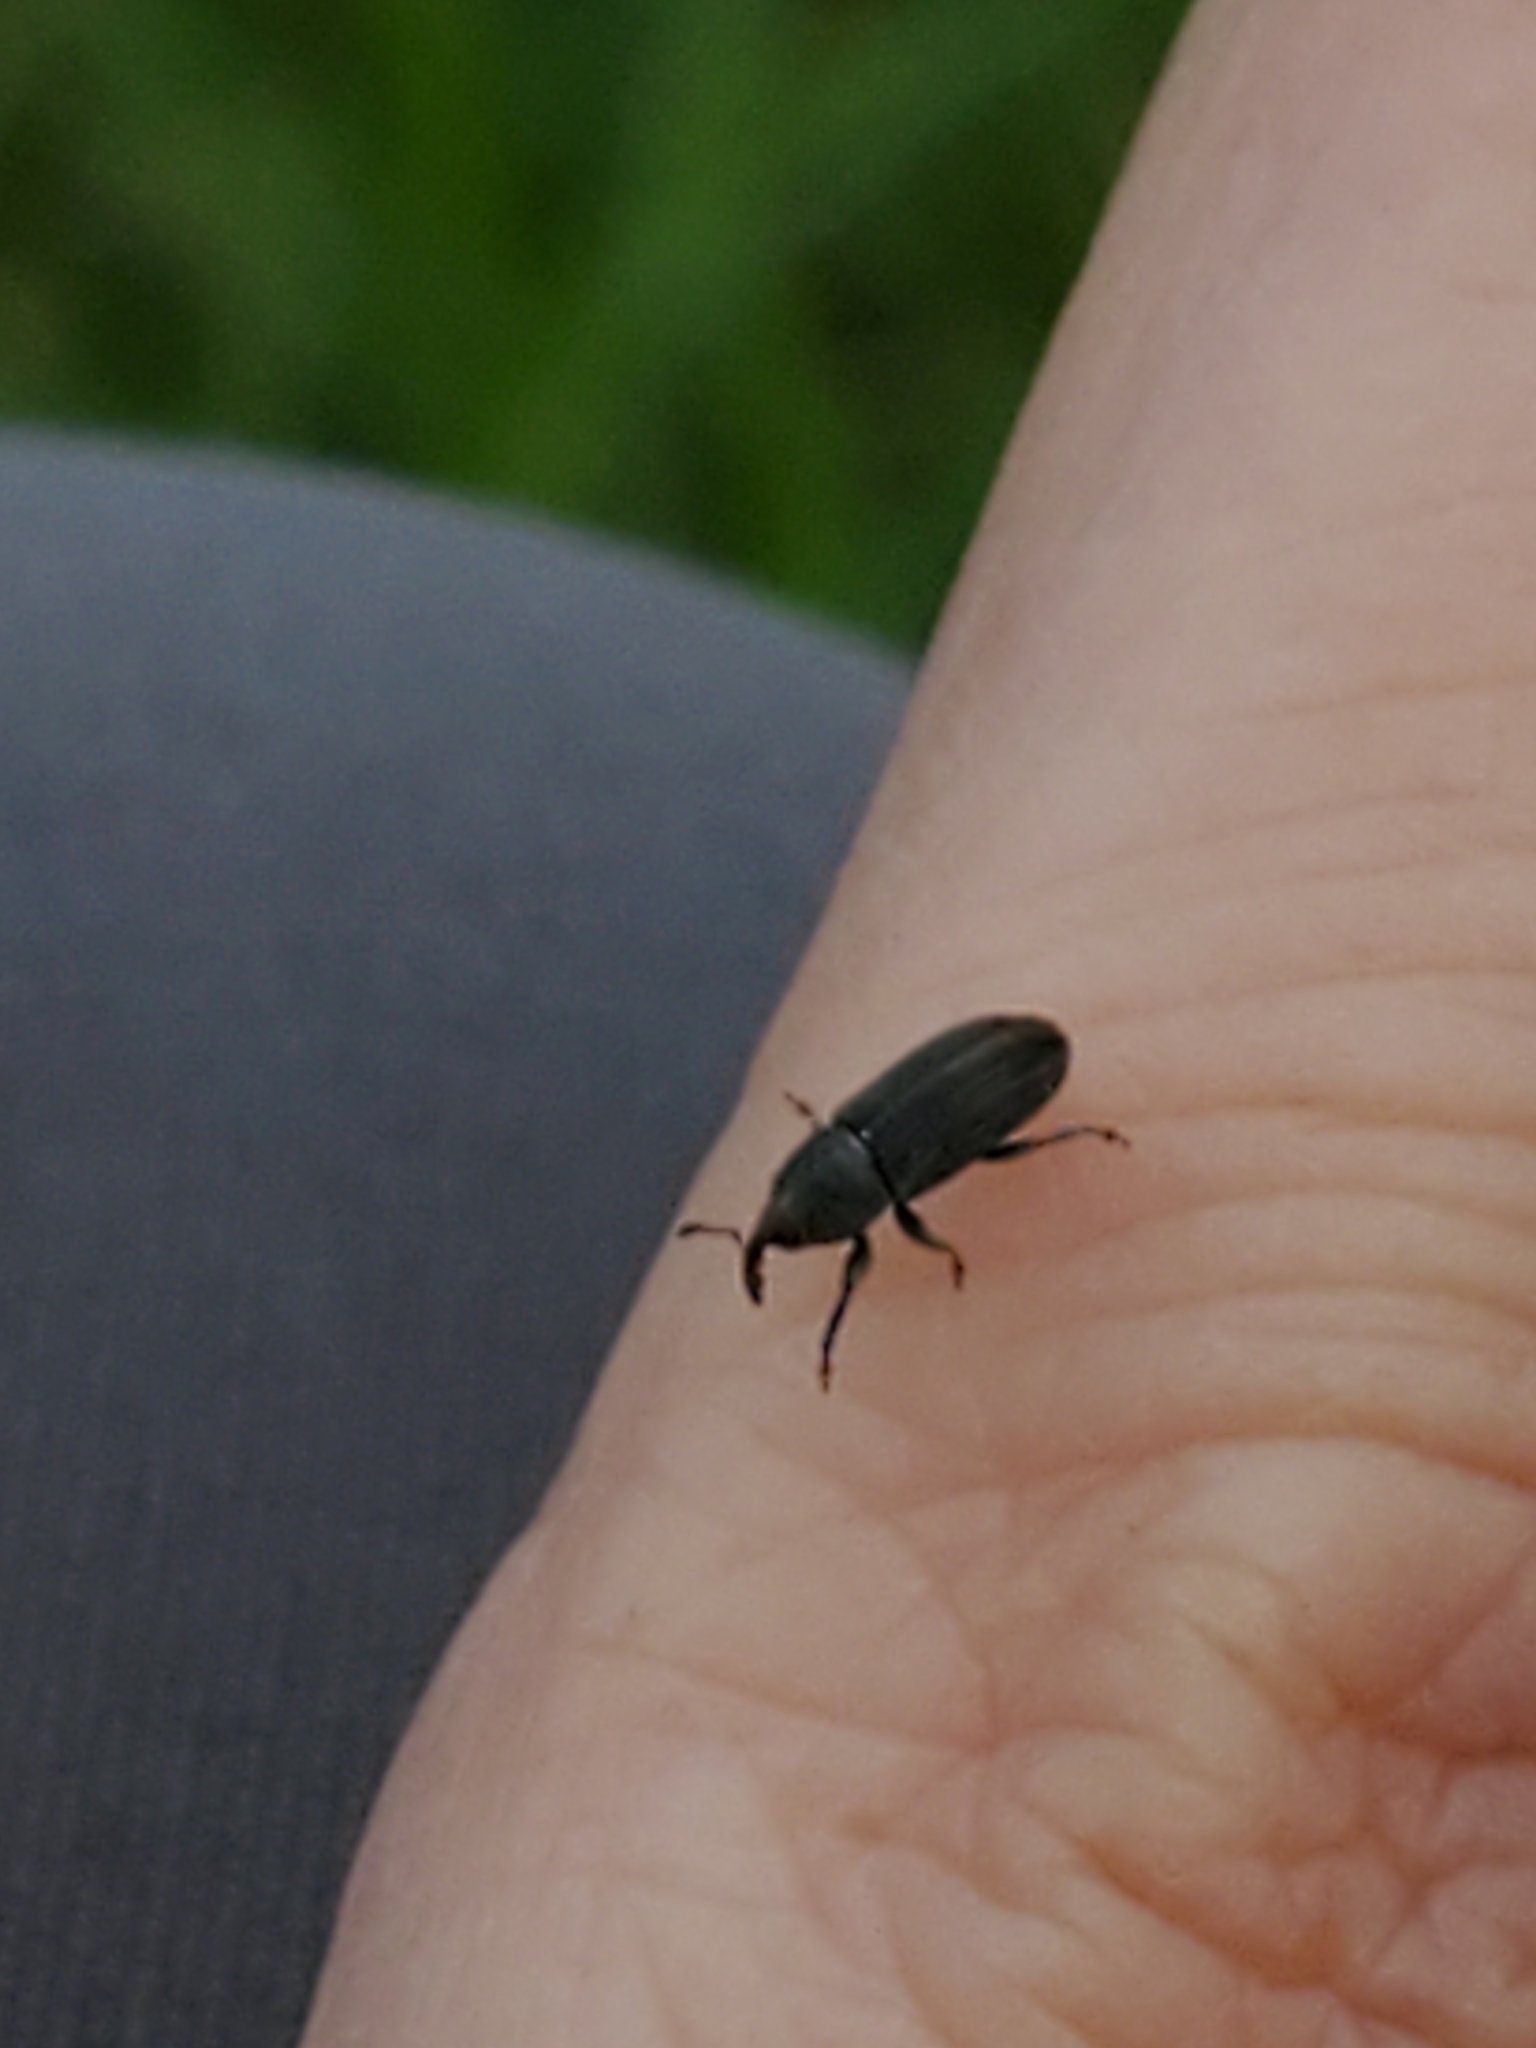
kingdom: Animalia
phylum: Arthropoda
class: Insecta
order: Coleoptera
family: Curculionidae
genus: Mecinus
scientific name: Mecinus pyraster
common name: Weevil
